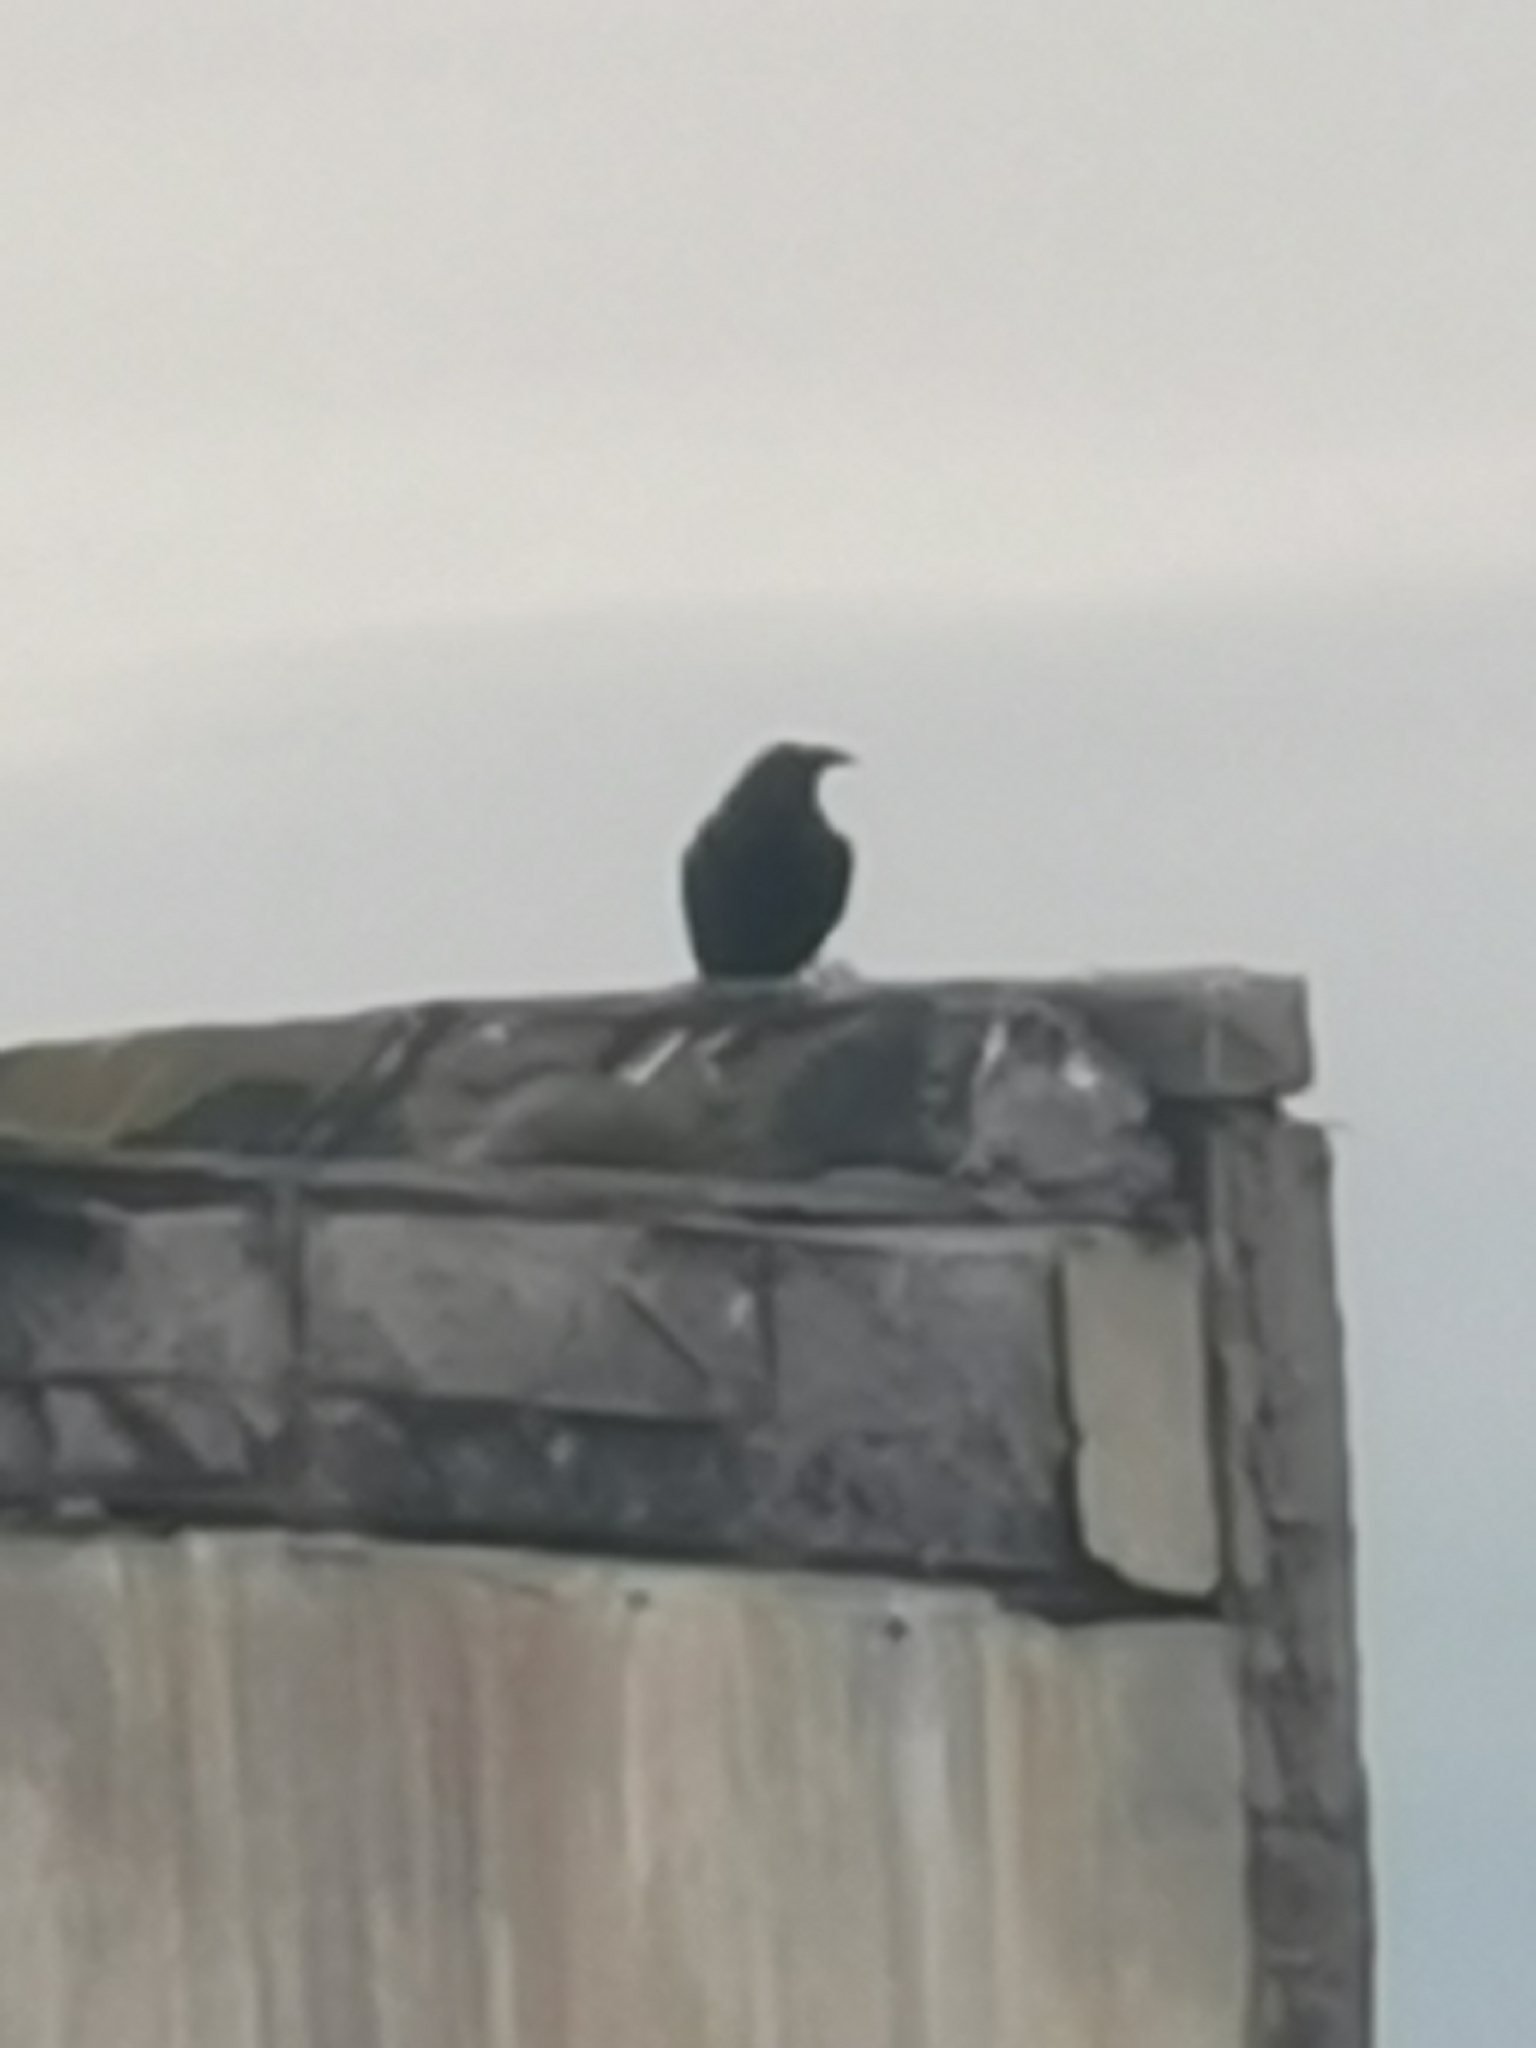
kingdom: Animalia
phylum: Chordata
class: Aves
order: Passeriformes
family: Corvidae
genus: Corvus
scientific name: Corvus corax
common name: Common raven
